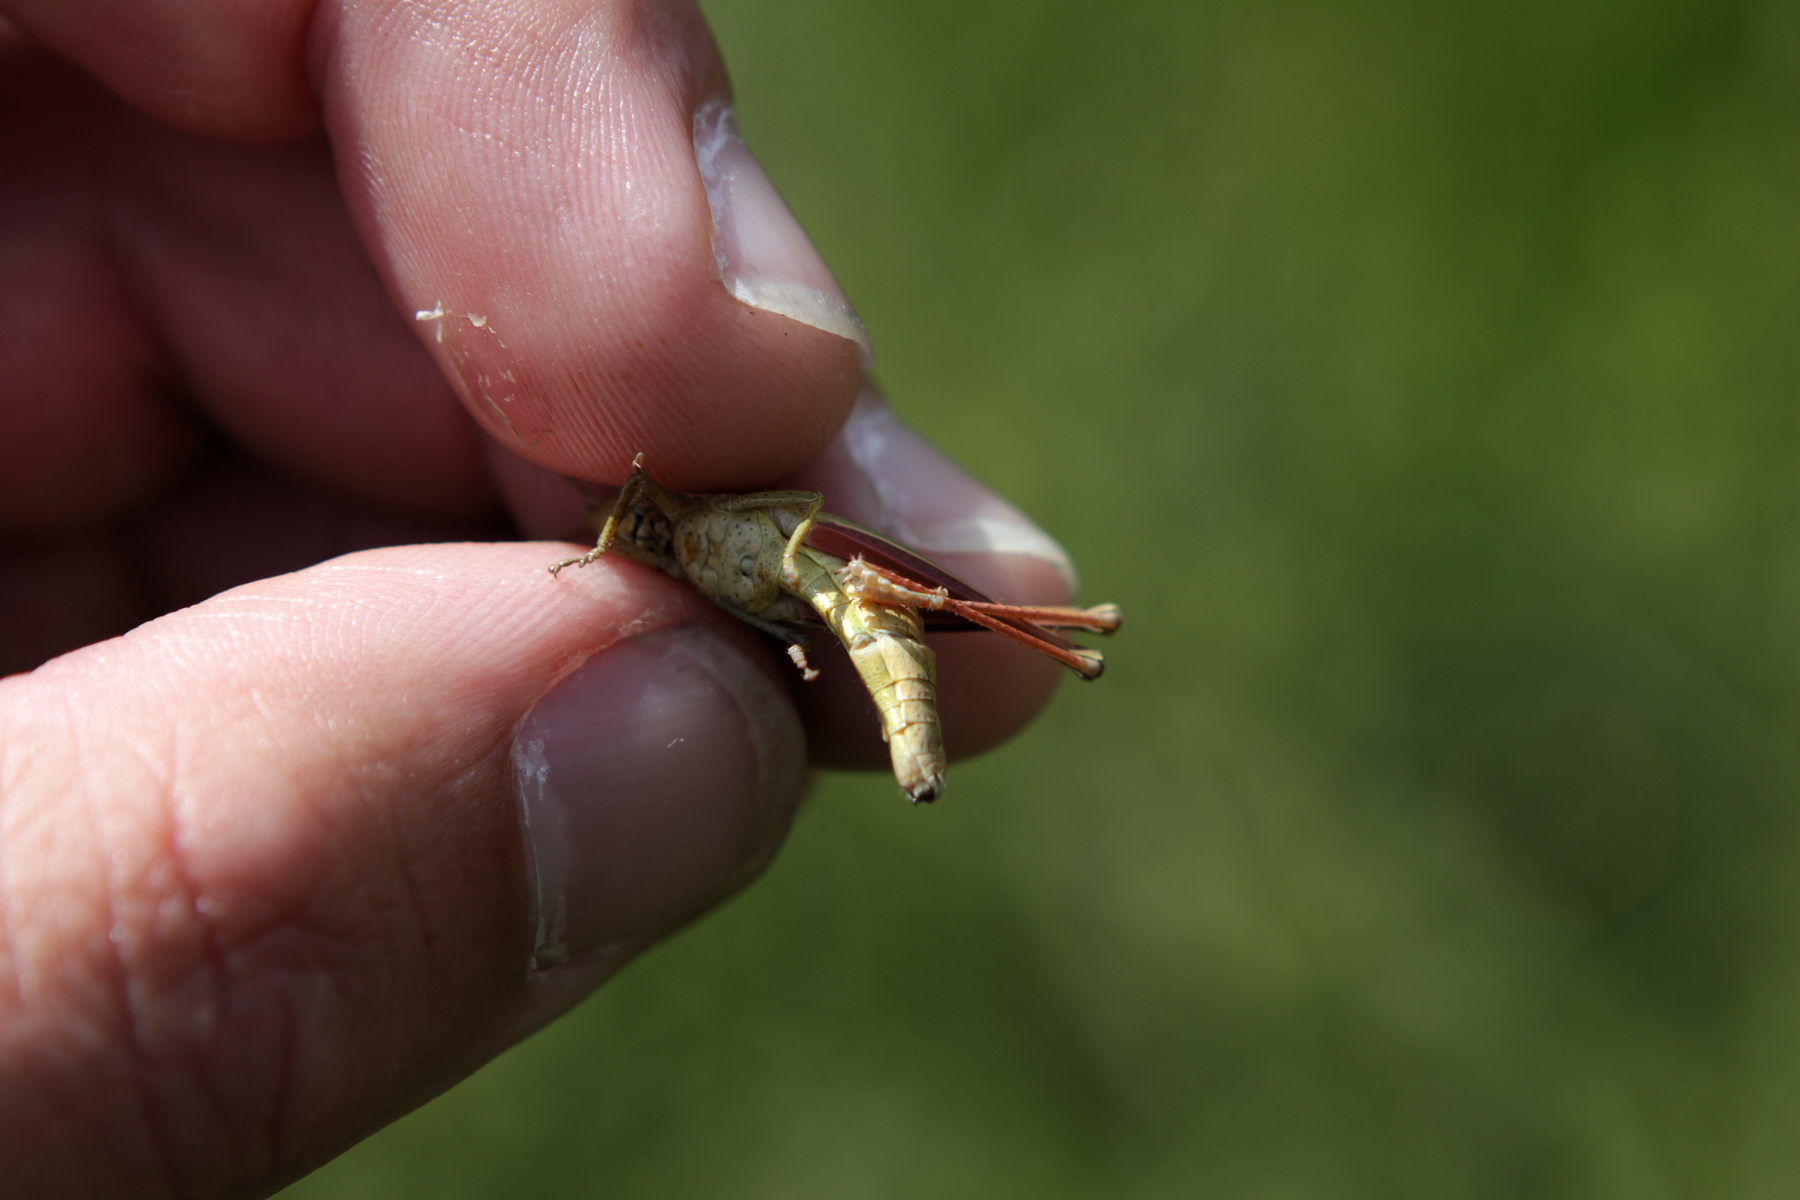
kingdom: Animalia
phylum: Arthropoda
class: Insecta
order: Orthoptera
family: Acrididae
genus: Chrysochraon
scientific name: Chrysochraon dispar
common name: Large gold grasshopper
